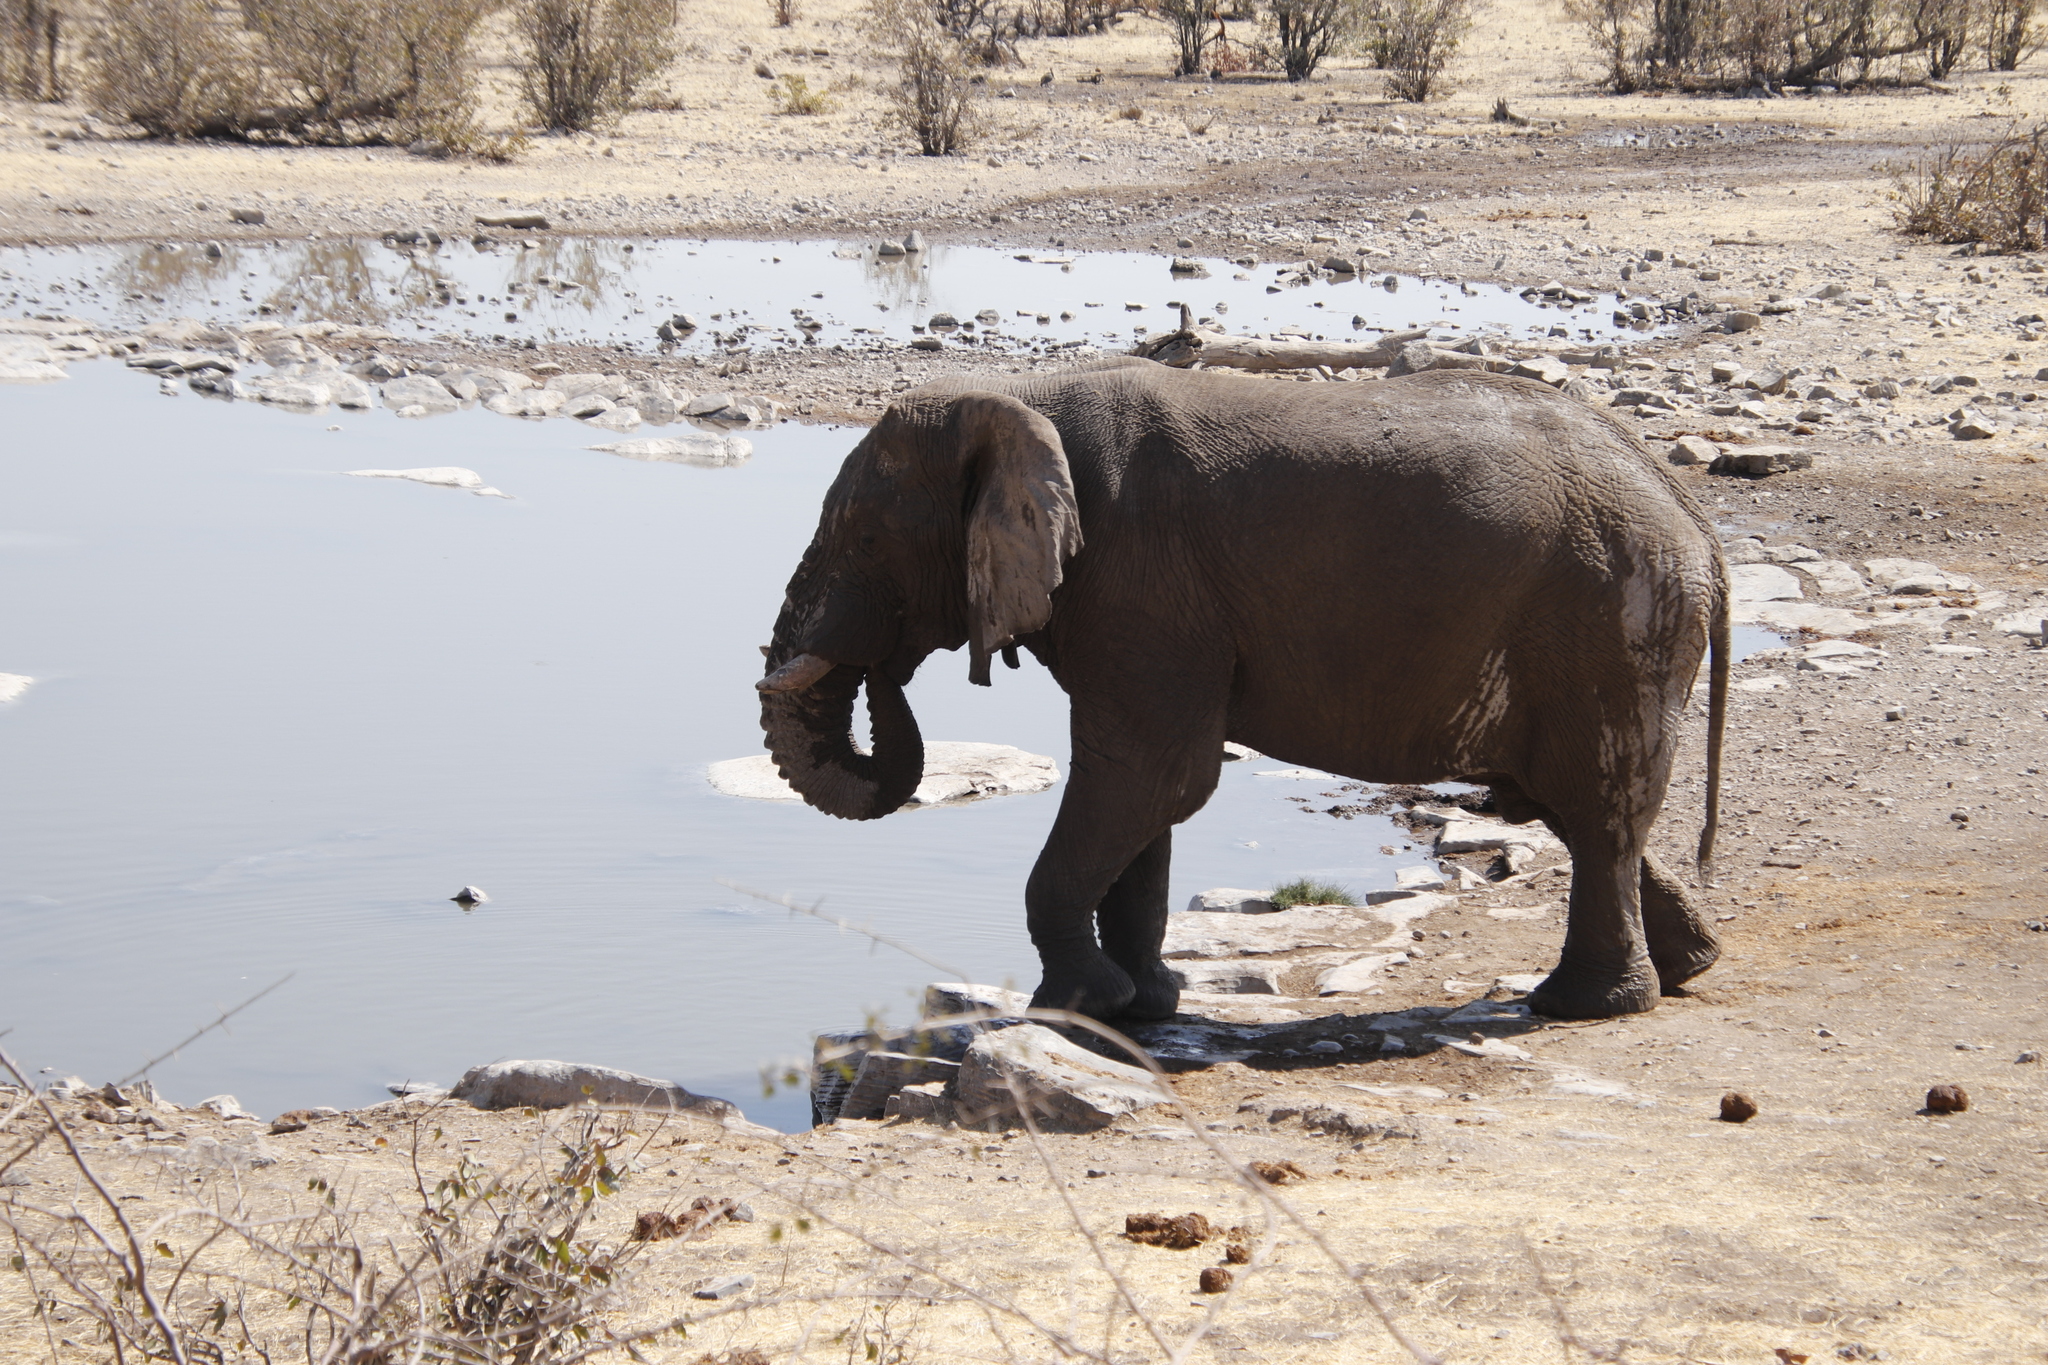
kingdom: Animalia
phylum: Chordata
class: Mammalia
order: Proboscidea
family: Elephantidae
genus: Loxodonta
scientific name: Loxodonta africana
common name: African elephant
